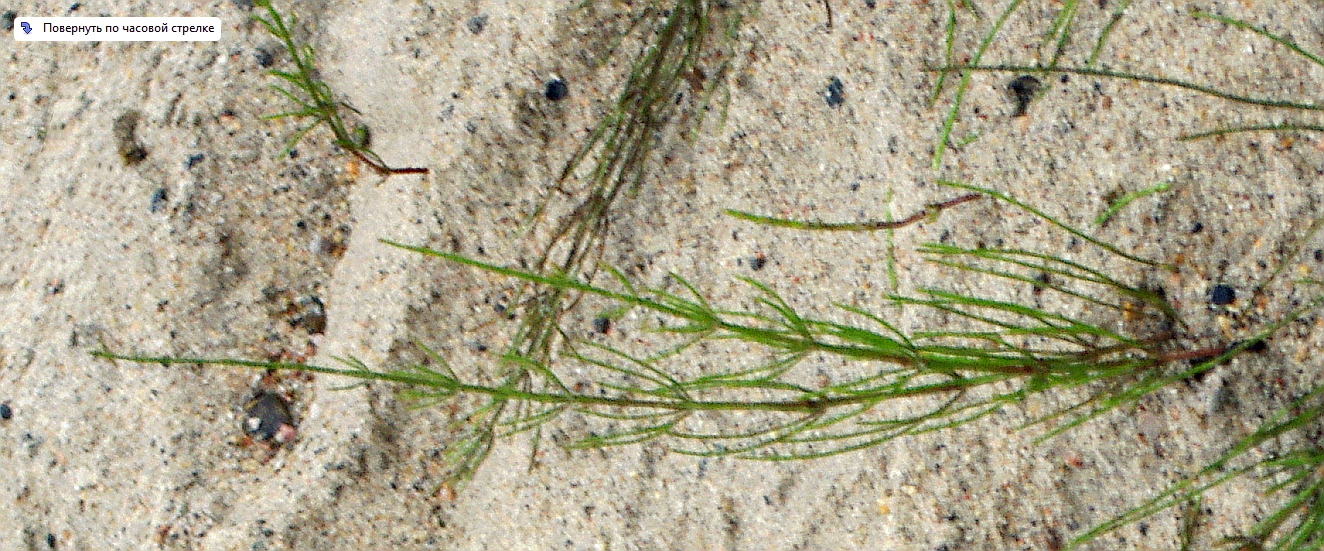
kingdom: Plantae
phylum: Tracheophyta
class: Polypodiopsida
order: Equisetales
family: Equisetaceae
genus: Equisetum
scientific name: Equisetum arvense
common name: Field horsetail
